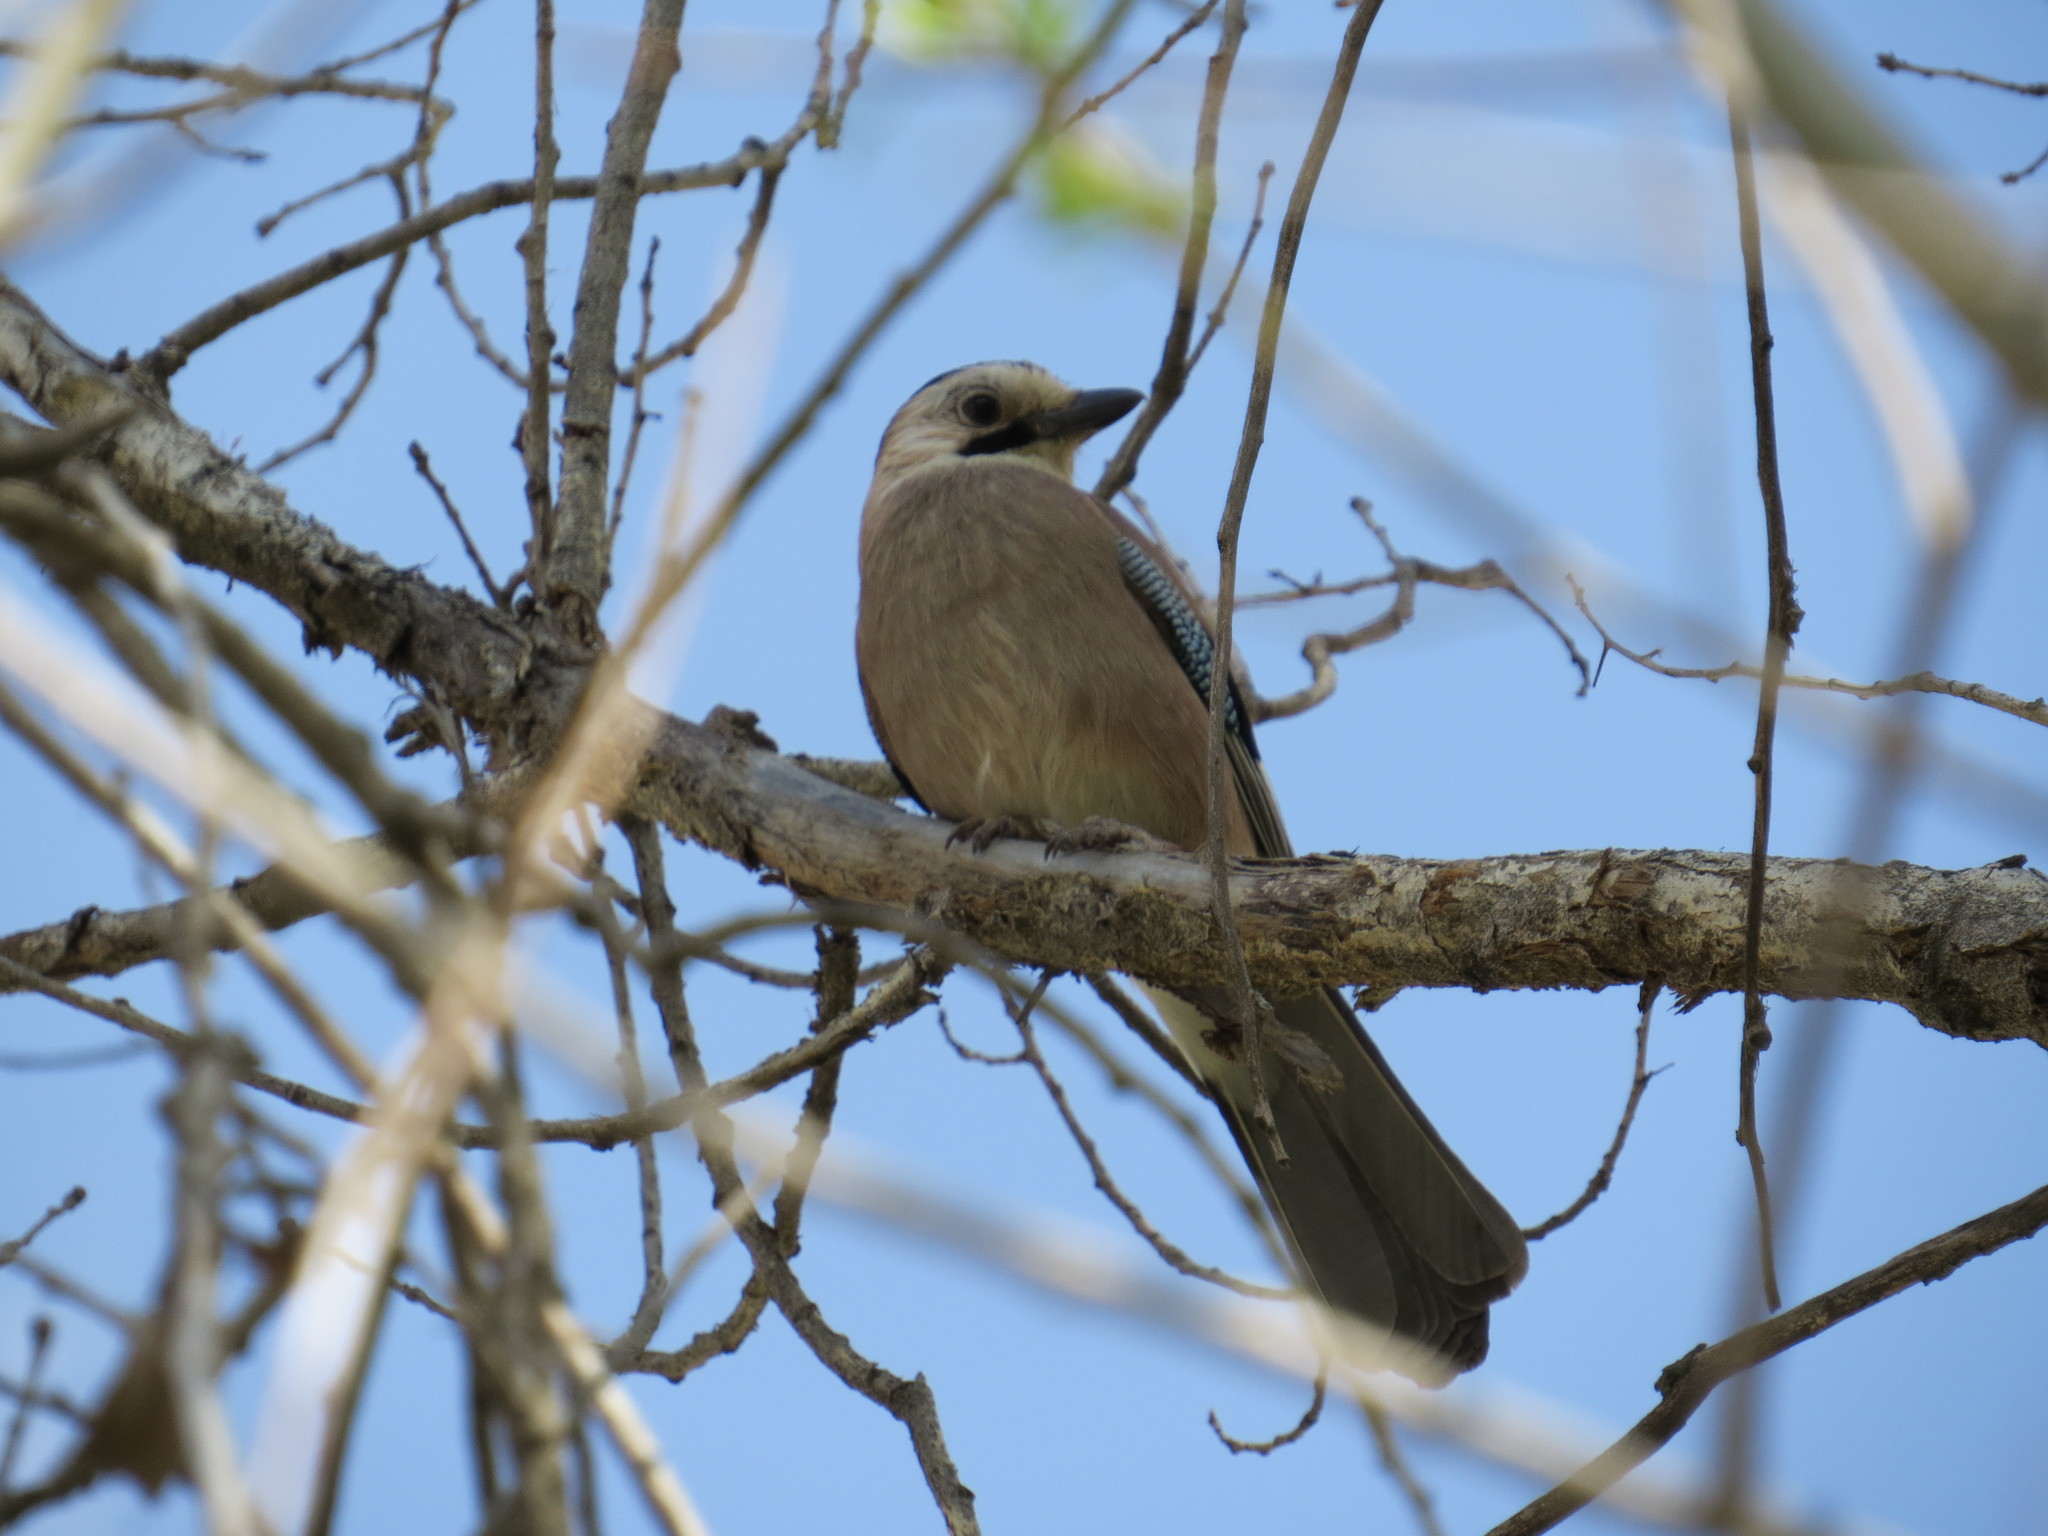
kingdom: Animalia
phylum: Chordata
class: Aves
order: Passeriformes
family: Corvidae
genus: Garrulus
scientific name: Garrulus glandarius
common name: Eurasian jay
